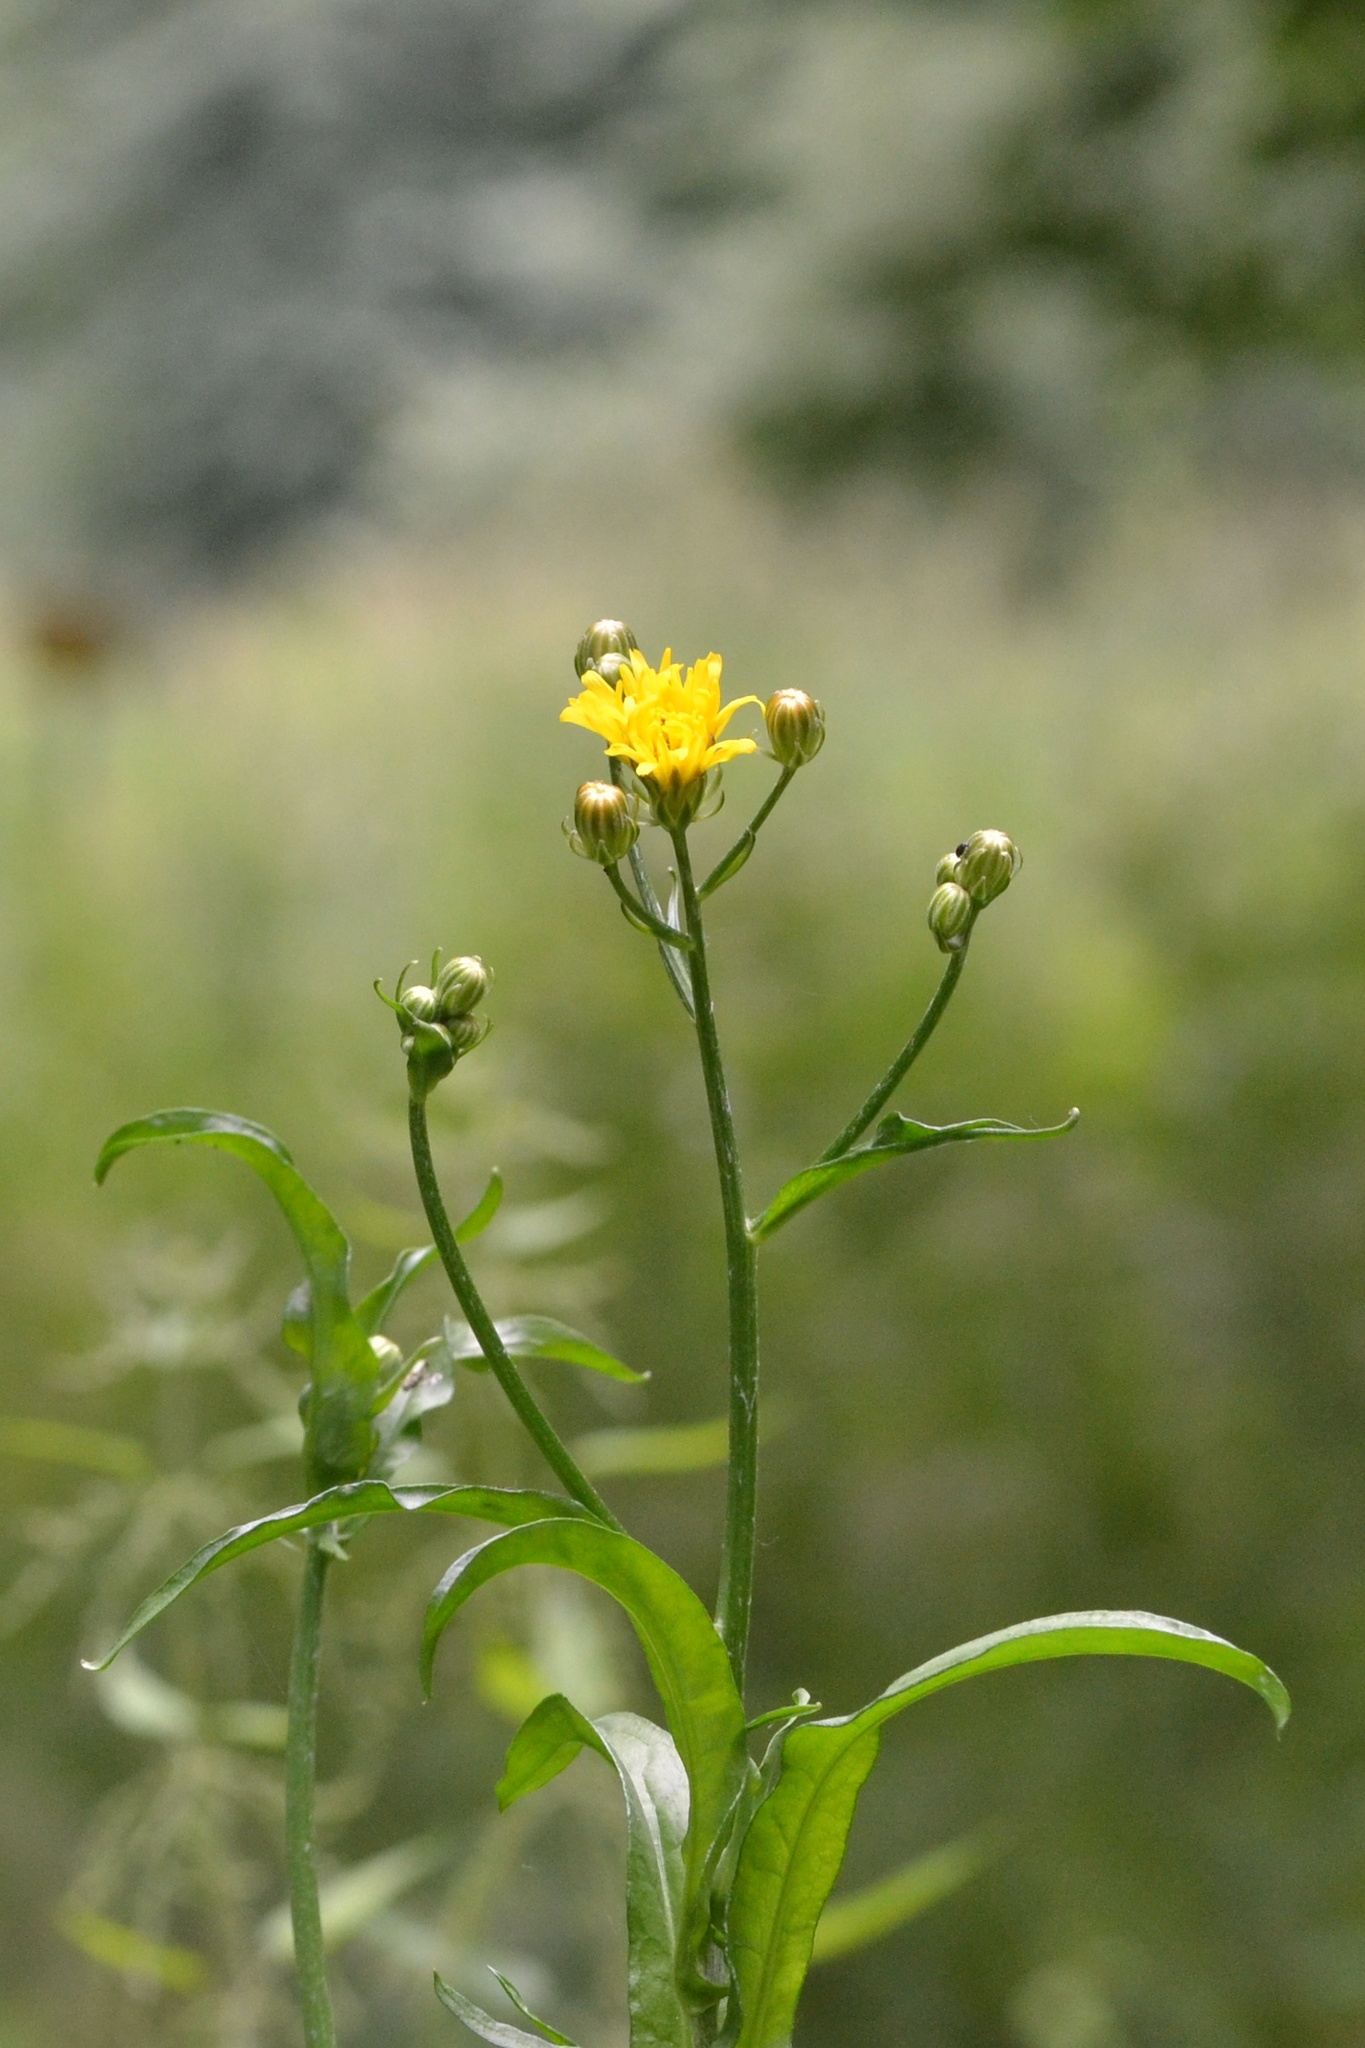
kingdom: Plantae
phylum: Tracheophyta
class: Magnoliopsida
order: Asterales
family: Asteraceae
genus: Crepis
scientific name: Crepis biennis
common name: Rough hawk's-beard
